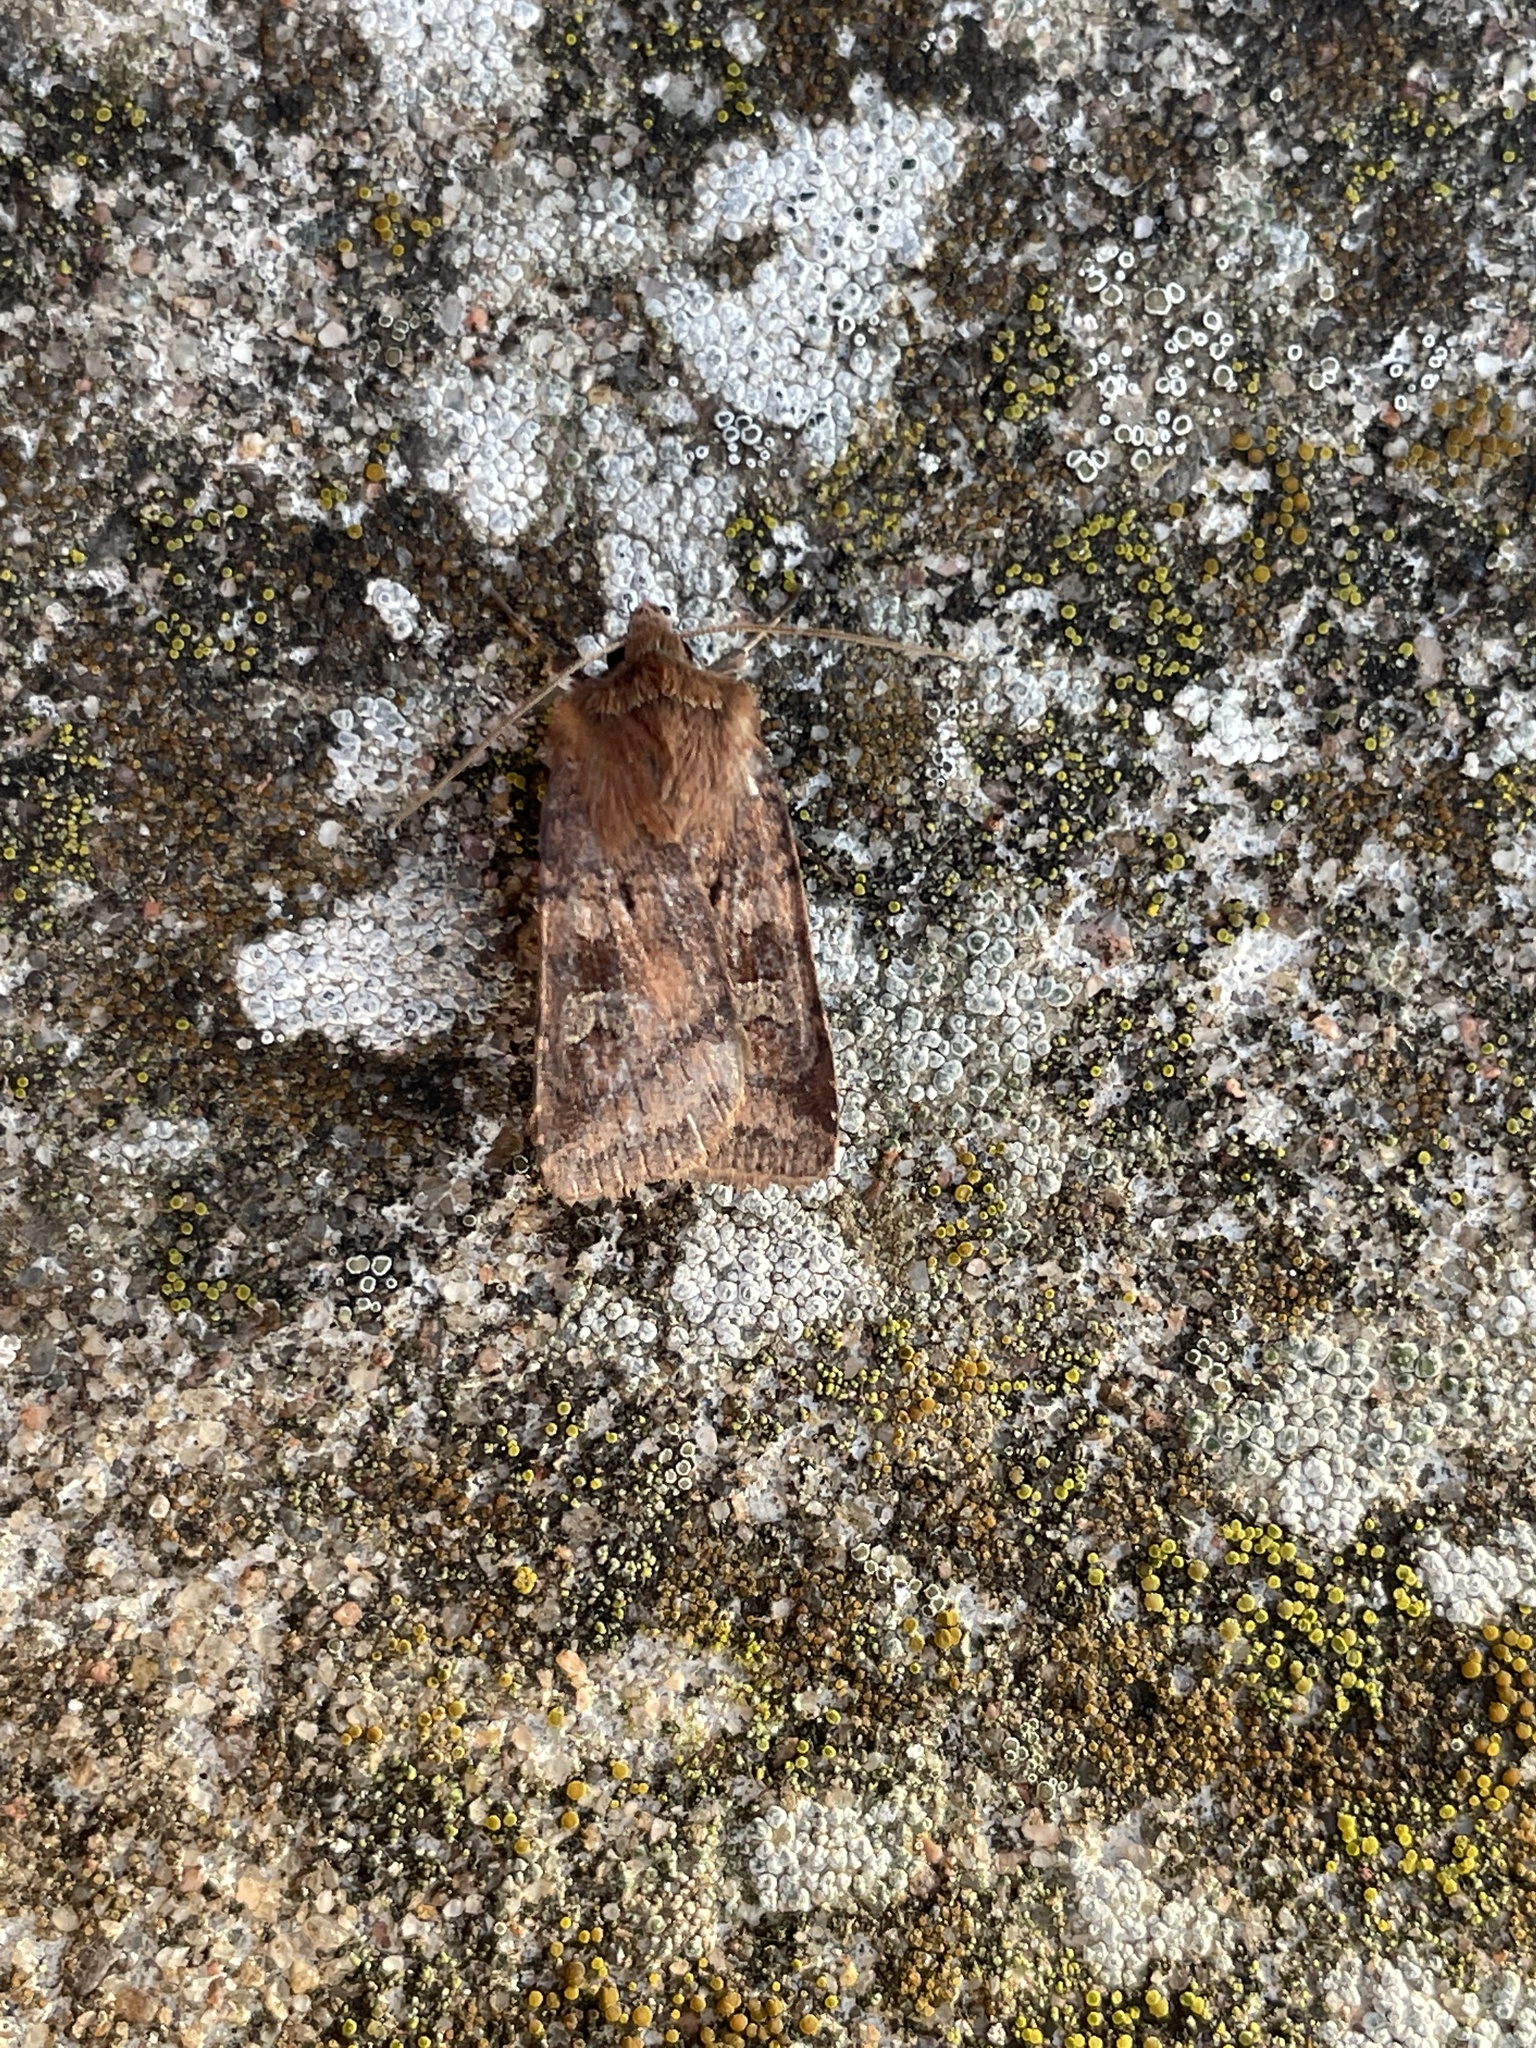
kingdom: Animalia
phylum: Arthropoda
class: Insecta
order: Lepidoptera
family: Noctuidae
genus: Diarsia
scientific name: Diarsia rubi
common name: Small square-spot
